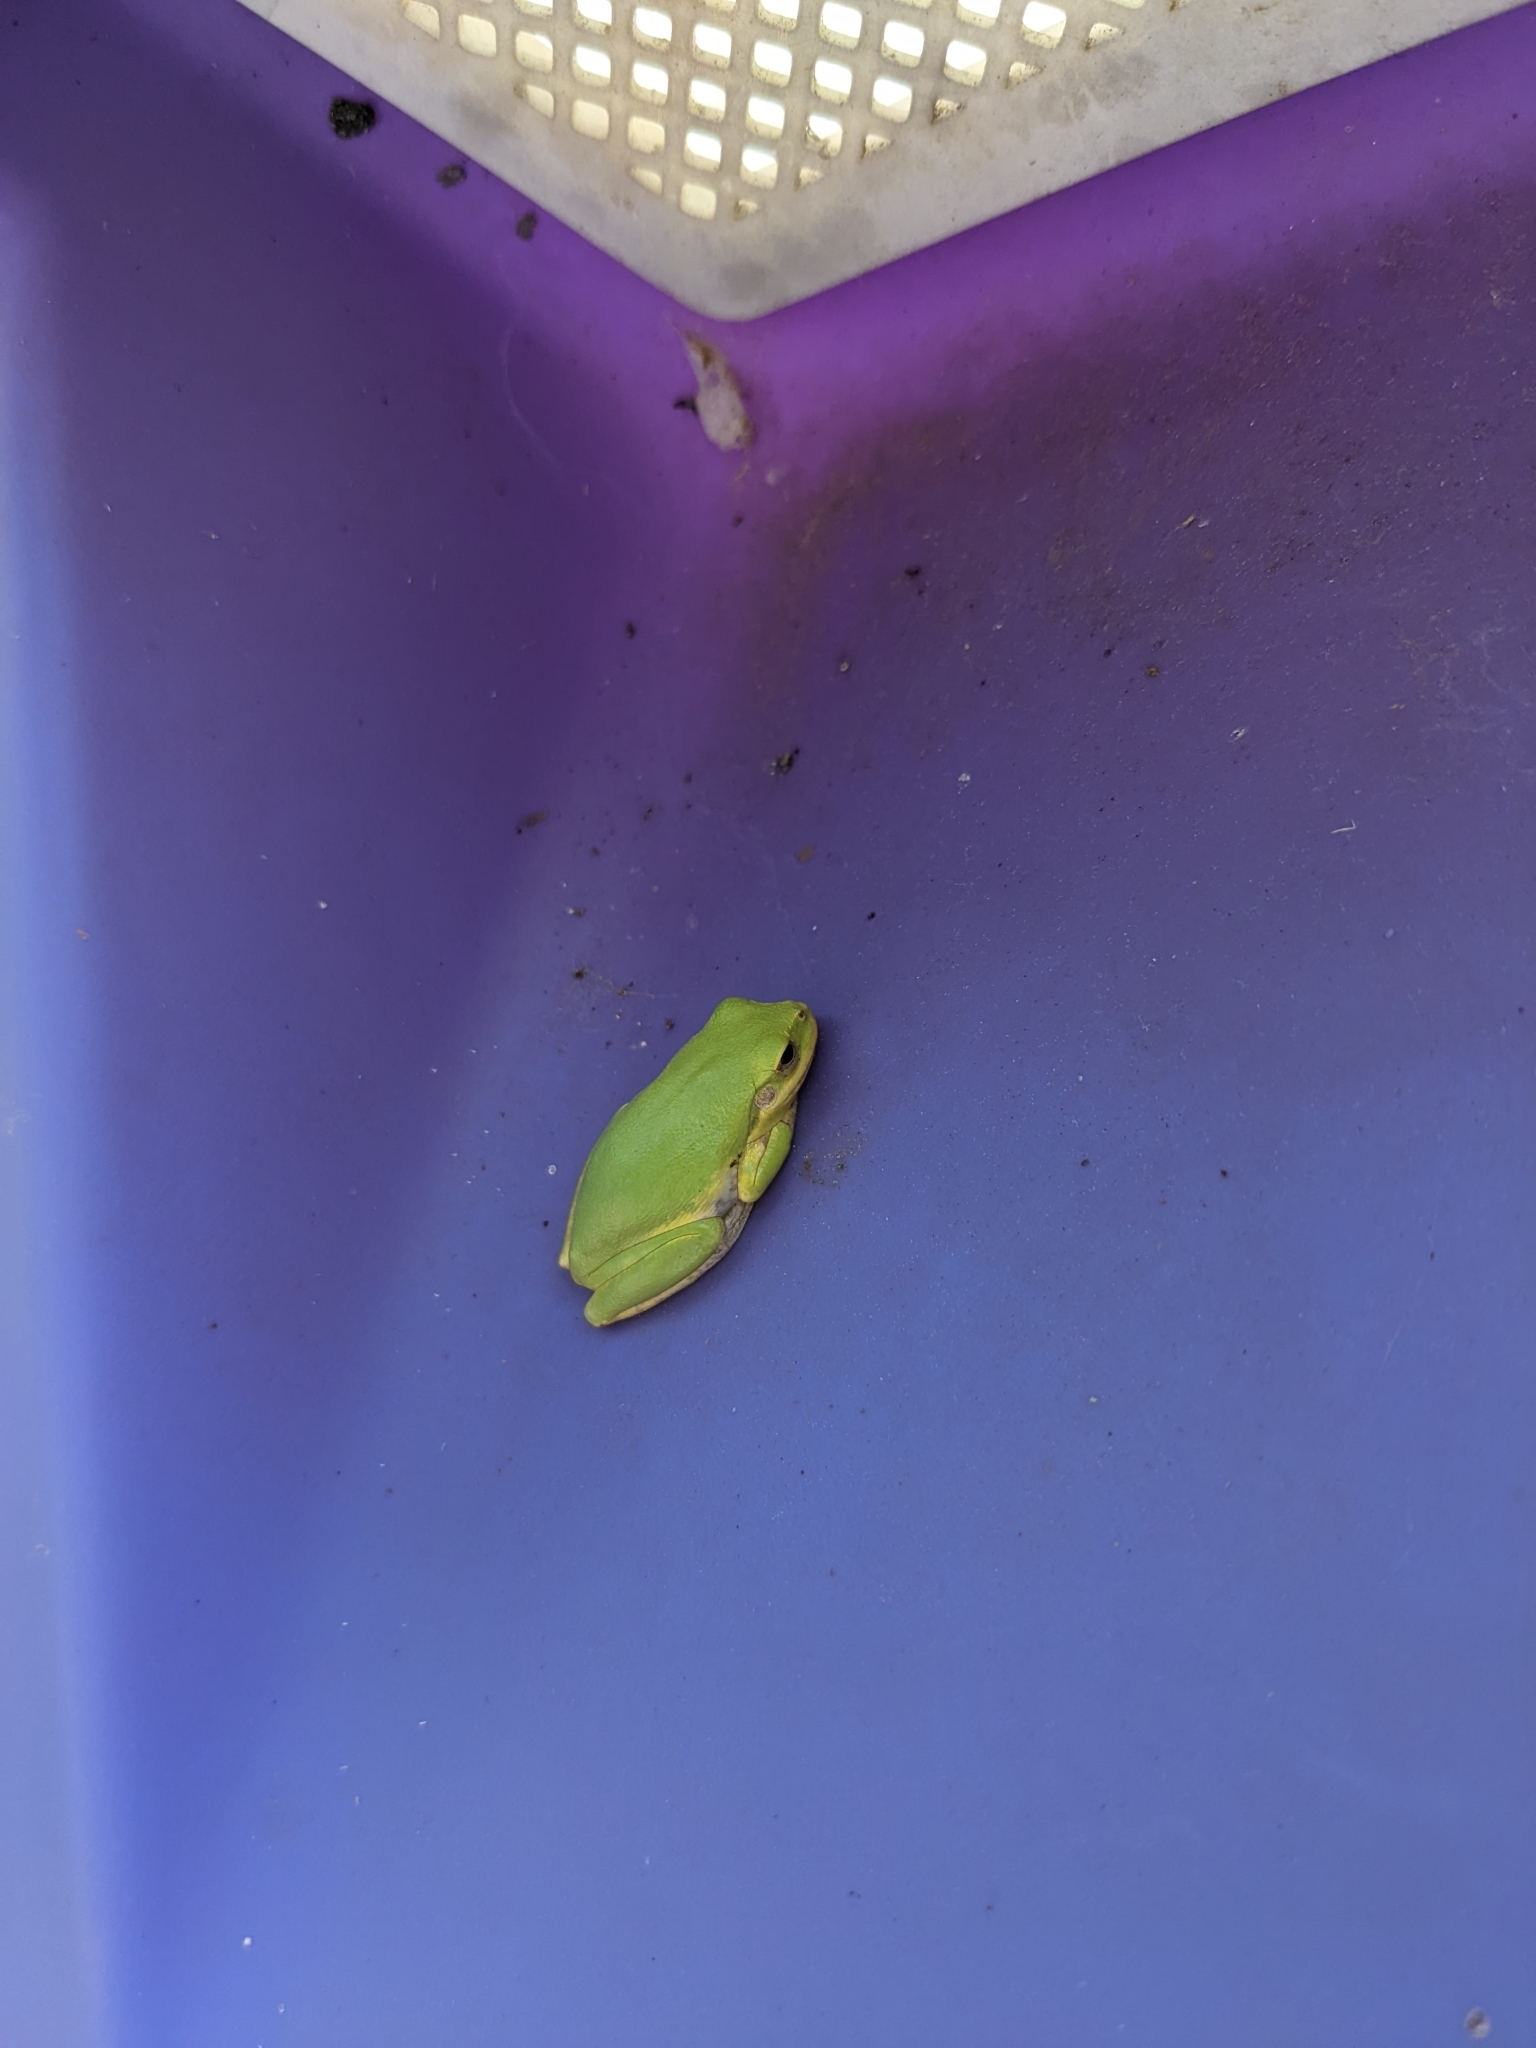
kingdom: Animalia
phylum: Chordata
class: Amphibia
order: Anura
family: Hylidae
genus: Dryophytes
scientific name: Dryophytes squirellus
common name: Squirrel treefrog
